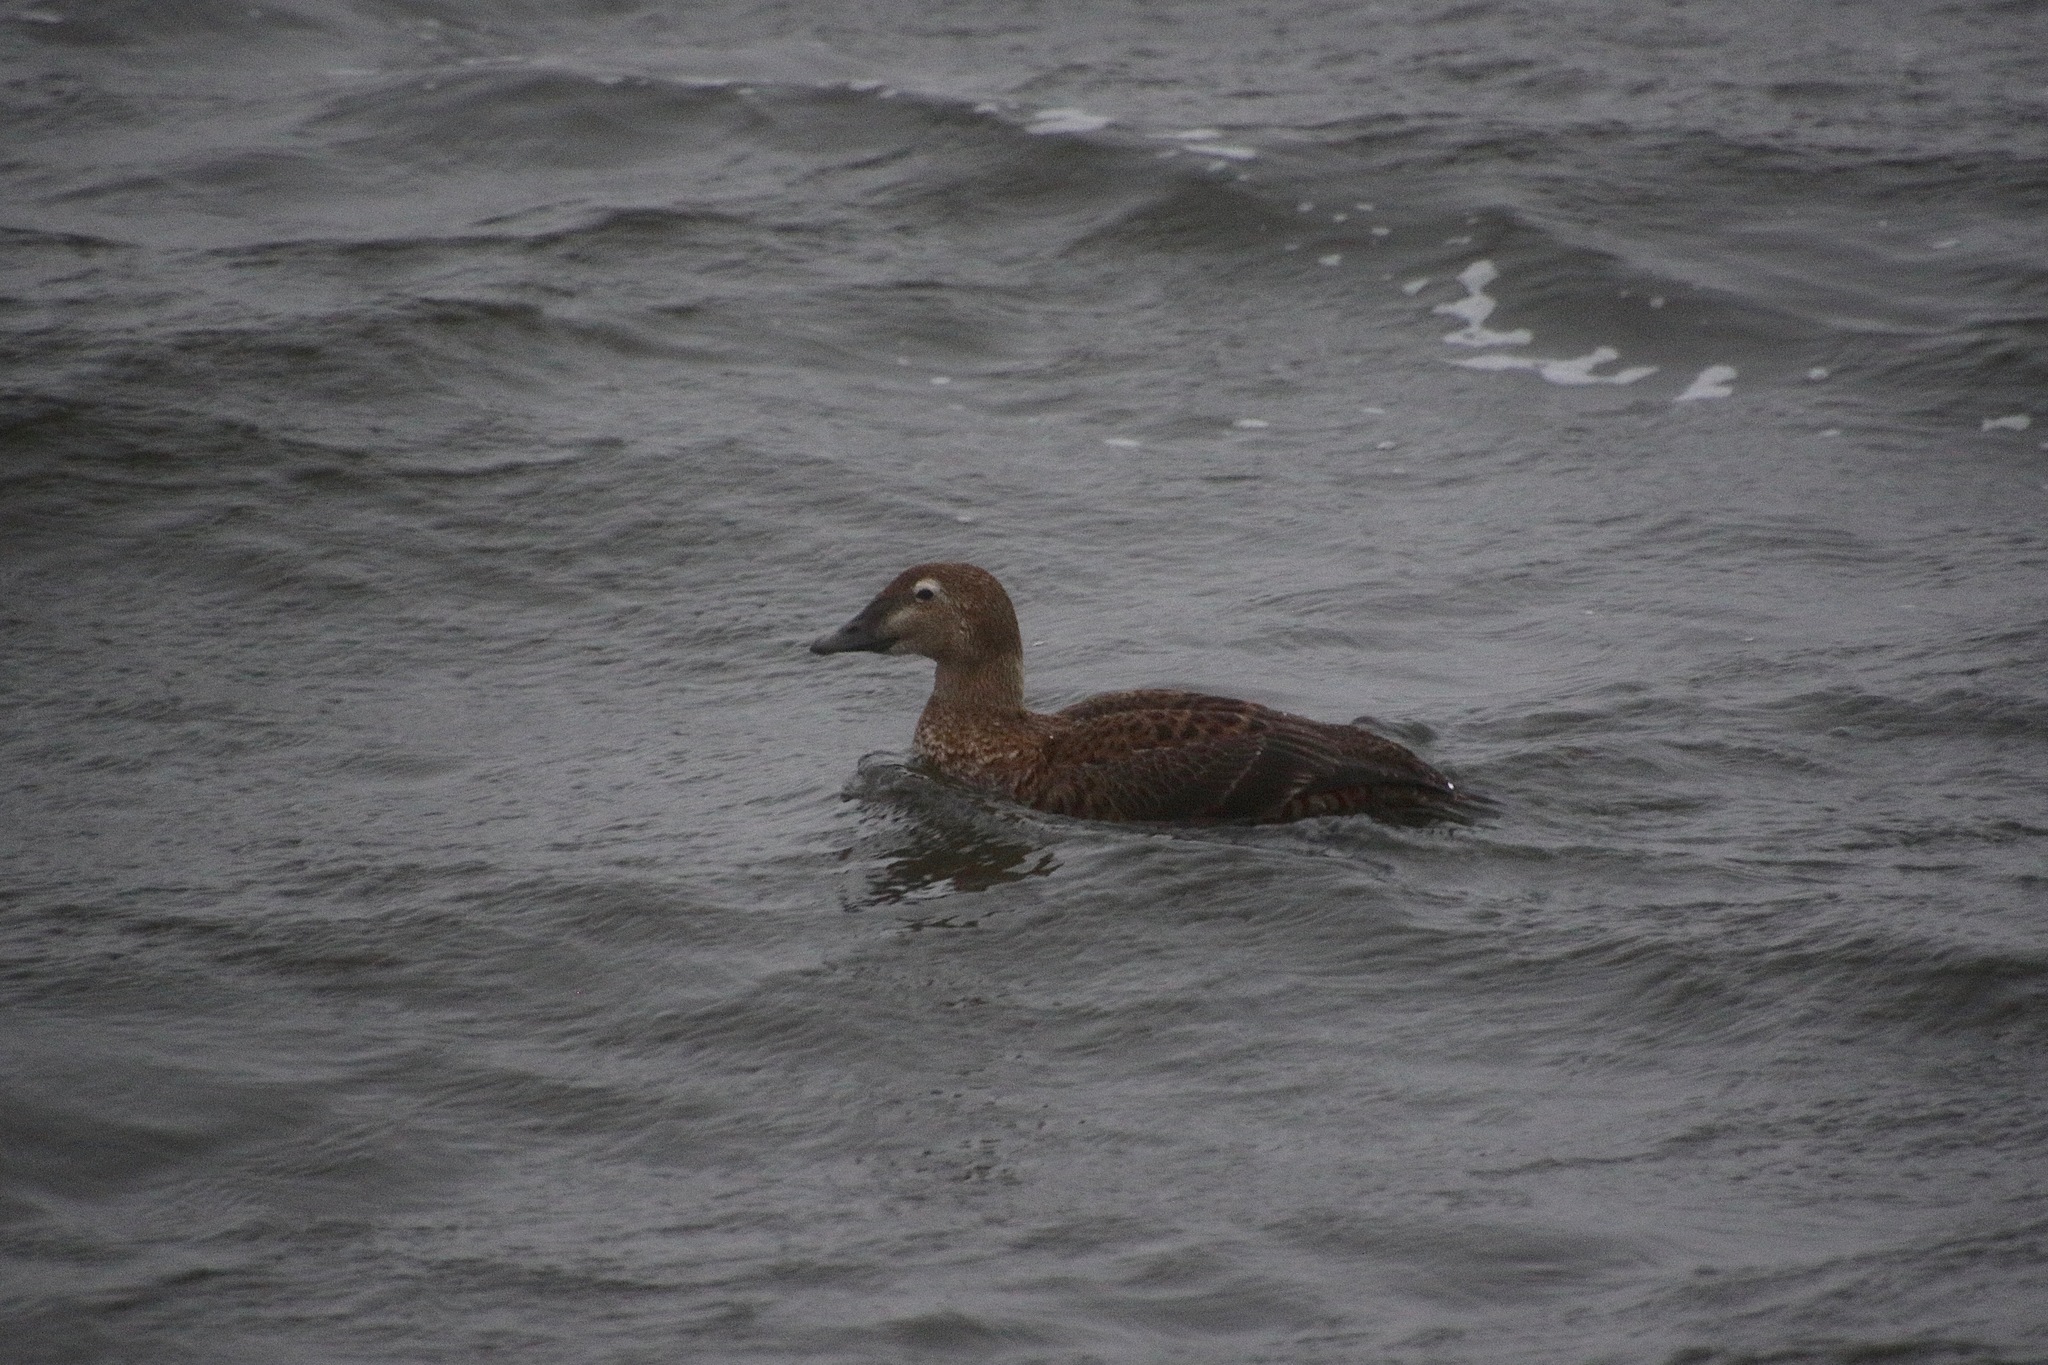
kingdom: Animalia
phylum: Chordata
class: Aves
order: Anseriformes
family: Anatidae
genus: Somateria
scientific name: Somateria spectabilis
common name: King eider
